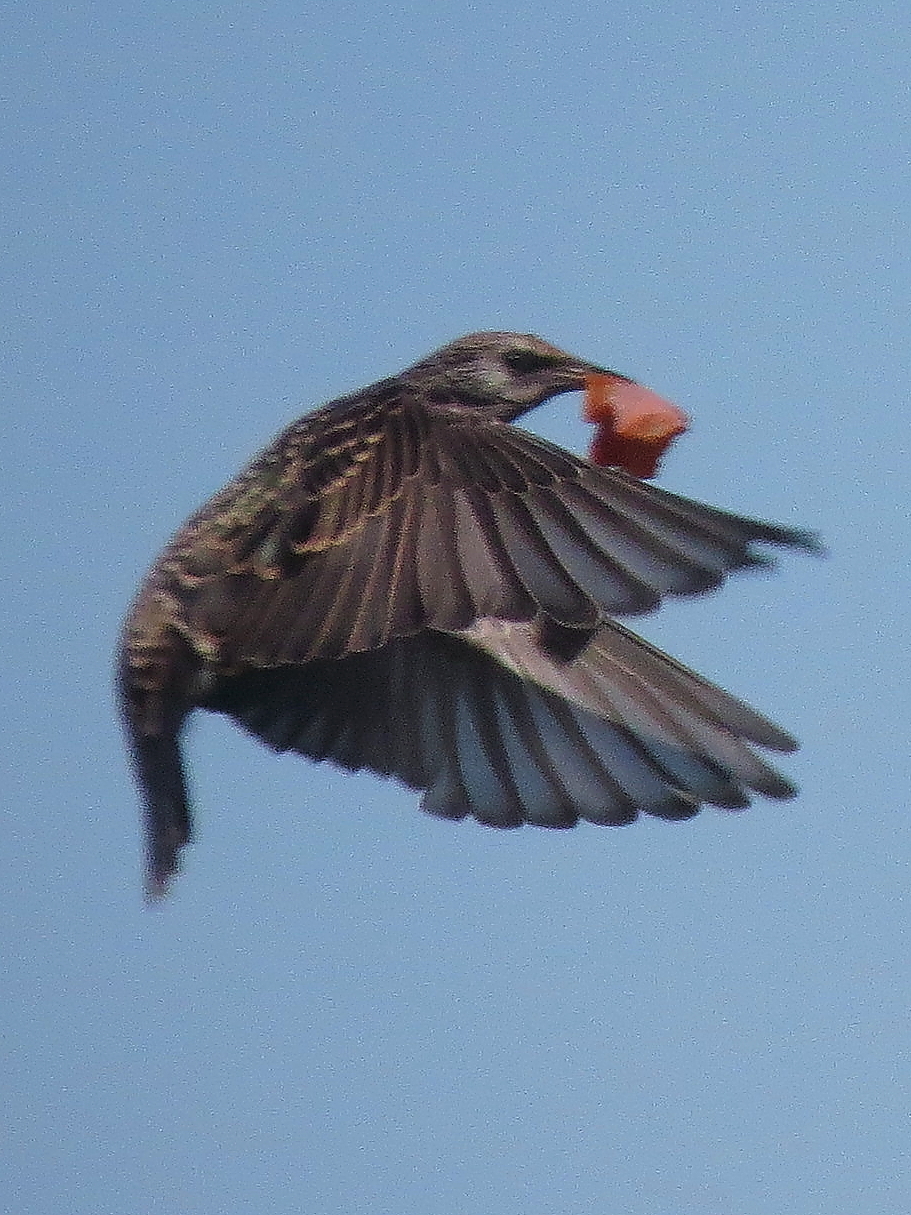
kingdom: Animalia
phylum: Chordata
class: Aves
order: Passeriformes
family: Sturnidae
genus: Sturnus
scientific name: Sturnus vulgaris
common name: Common starling
